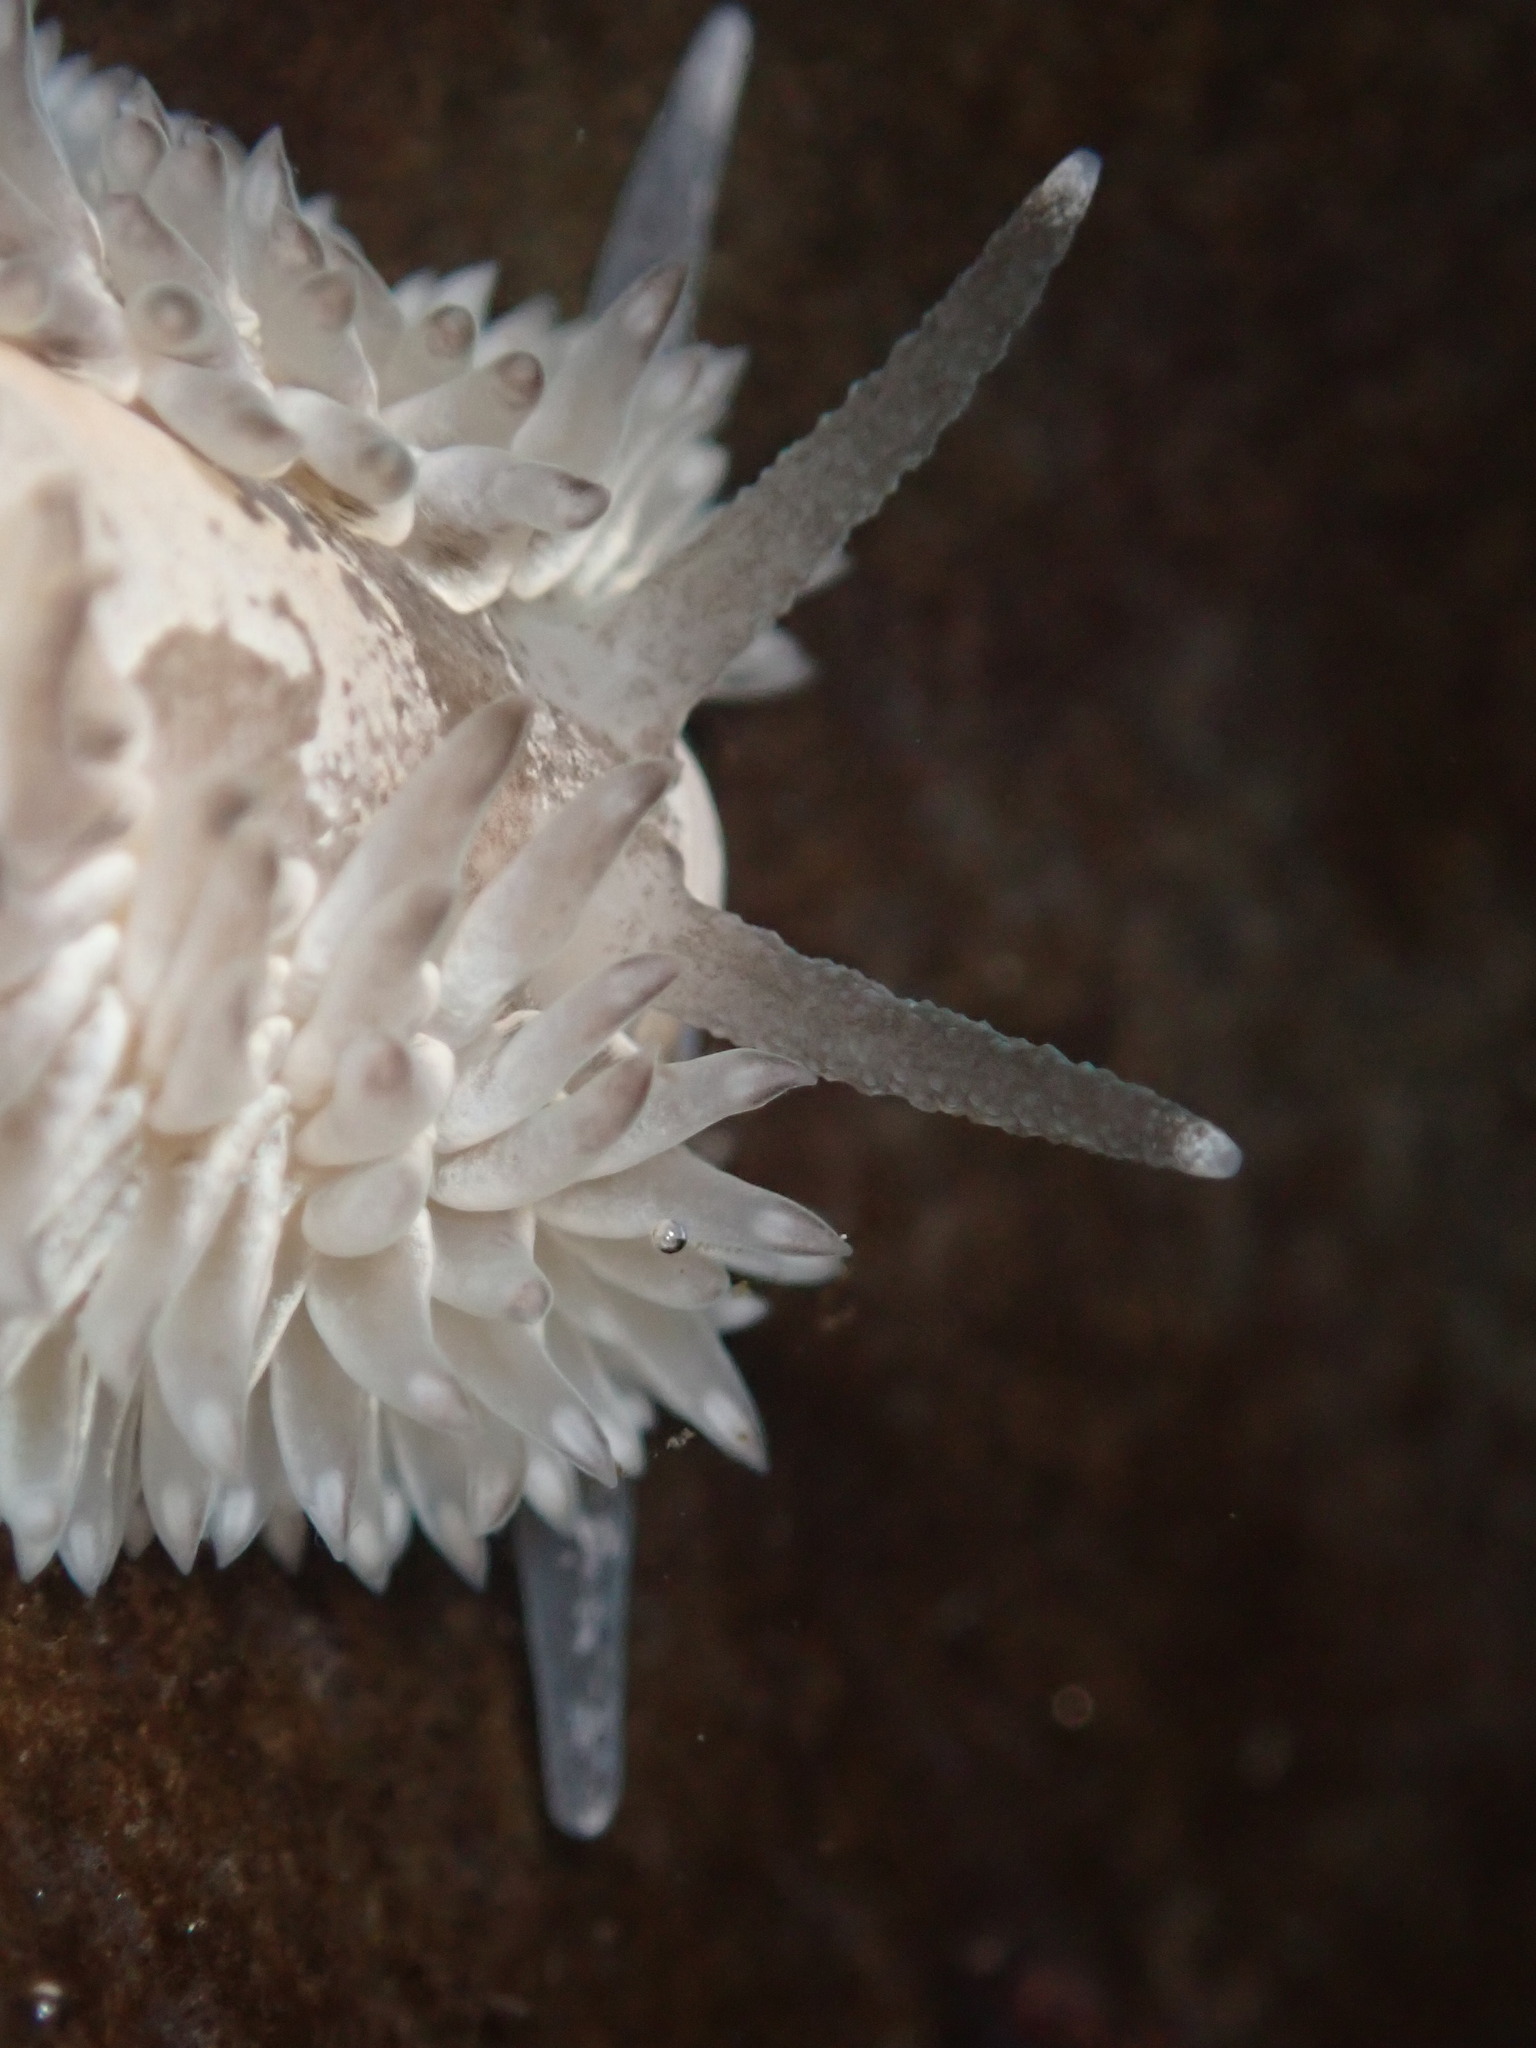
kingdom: Animalia
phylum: Mollusca
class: Gastropoda
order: Nudibranchia
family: Aeolidiidae
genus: Aeolidia
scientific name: Aeolidia loui
